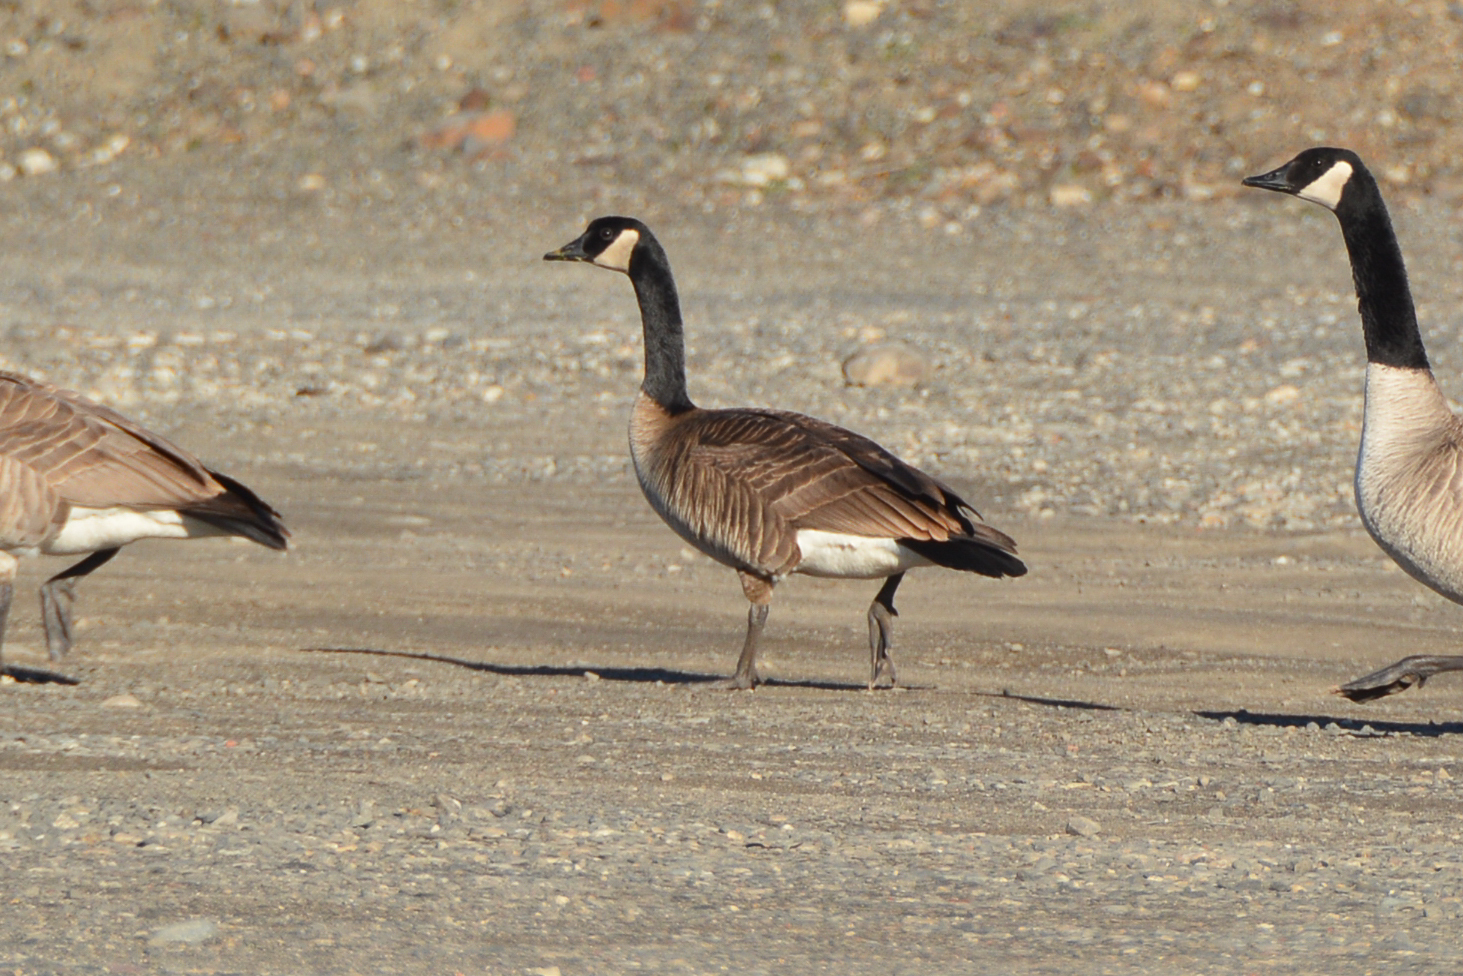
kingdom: Animalia
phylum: Chordata
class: Aves
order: Anseriformes
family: Anatidae
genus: Branta
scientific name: Branta canadensis
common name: Canada goose
